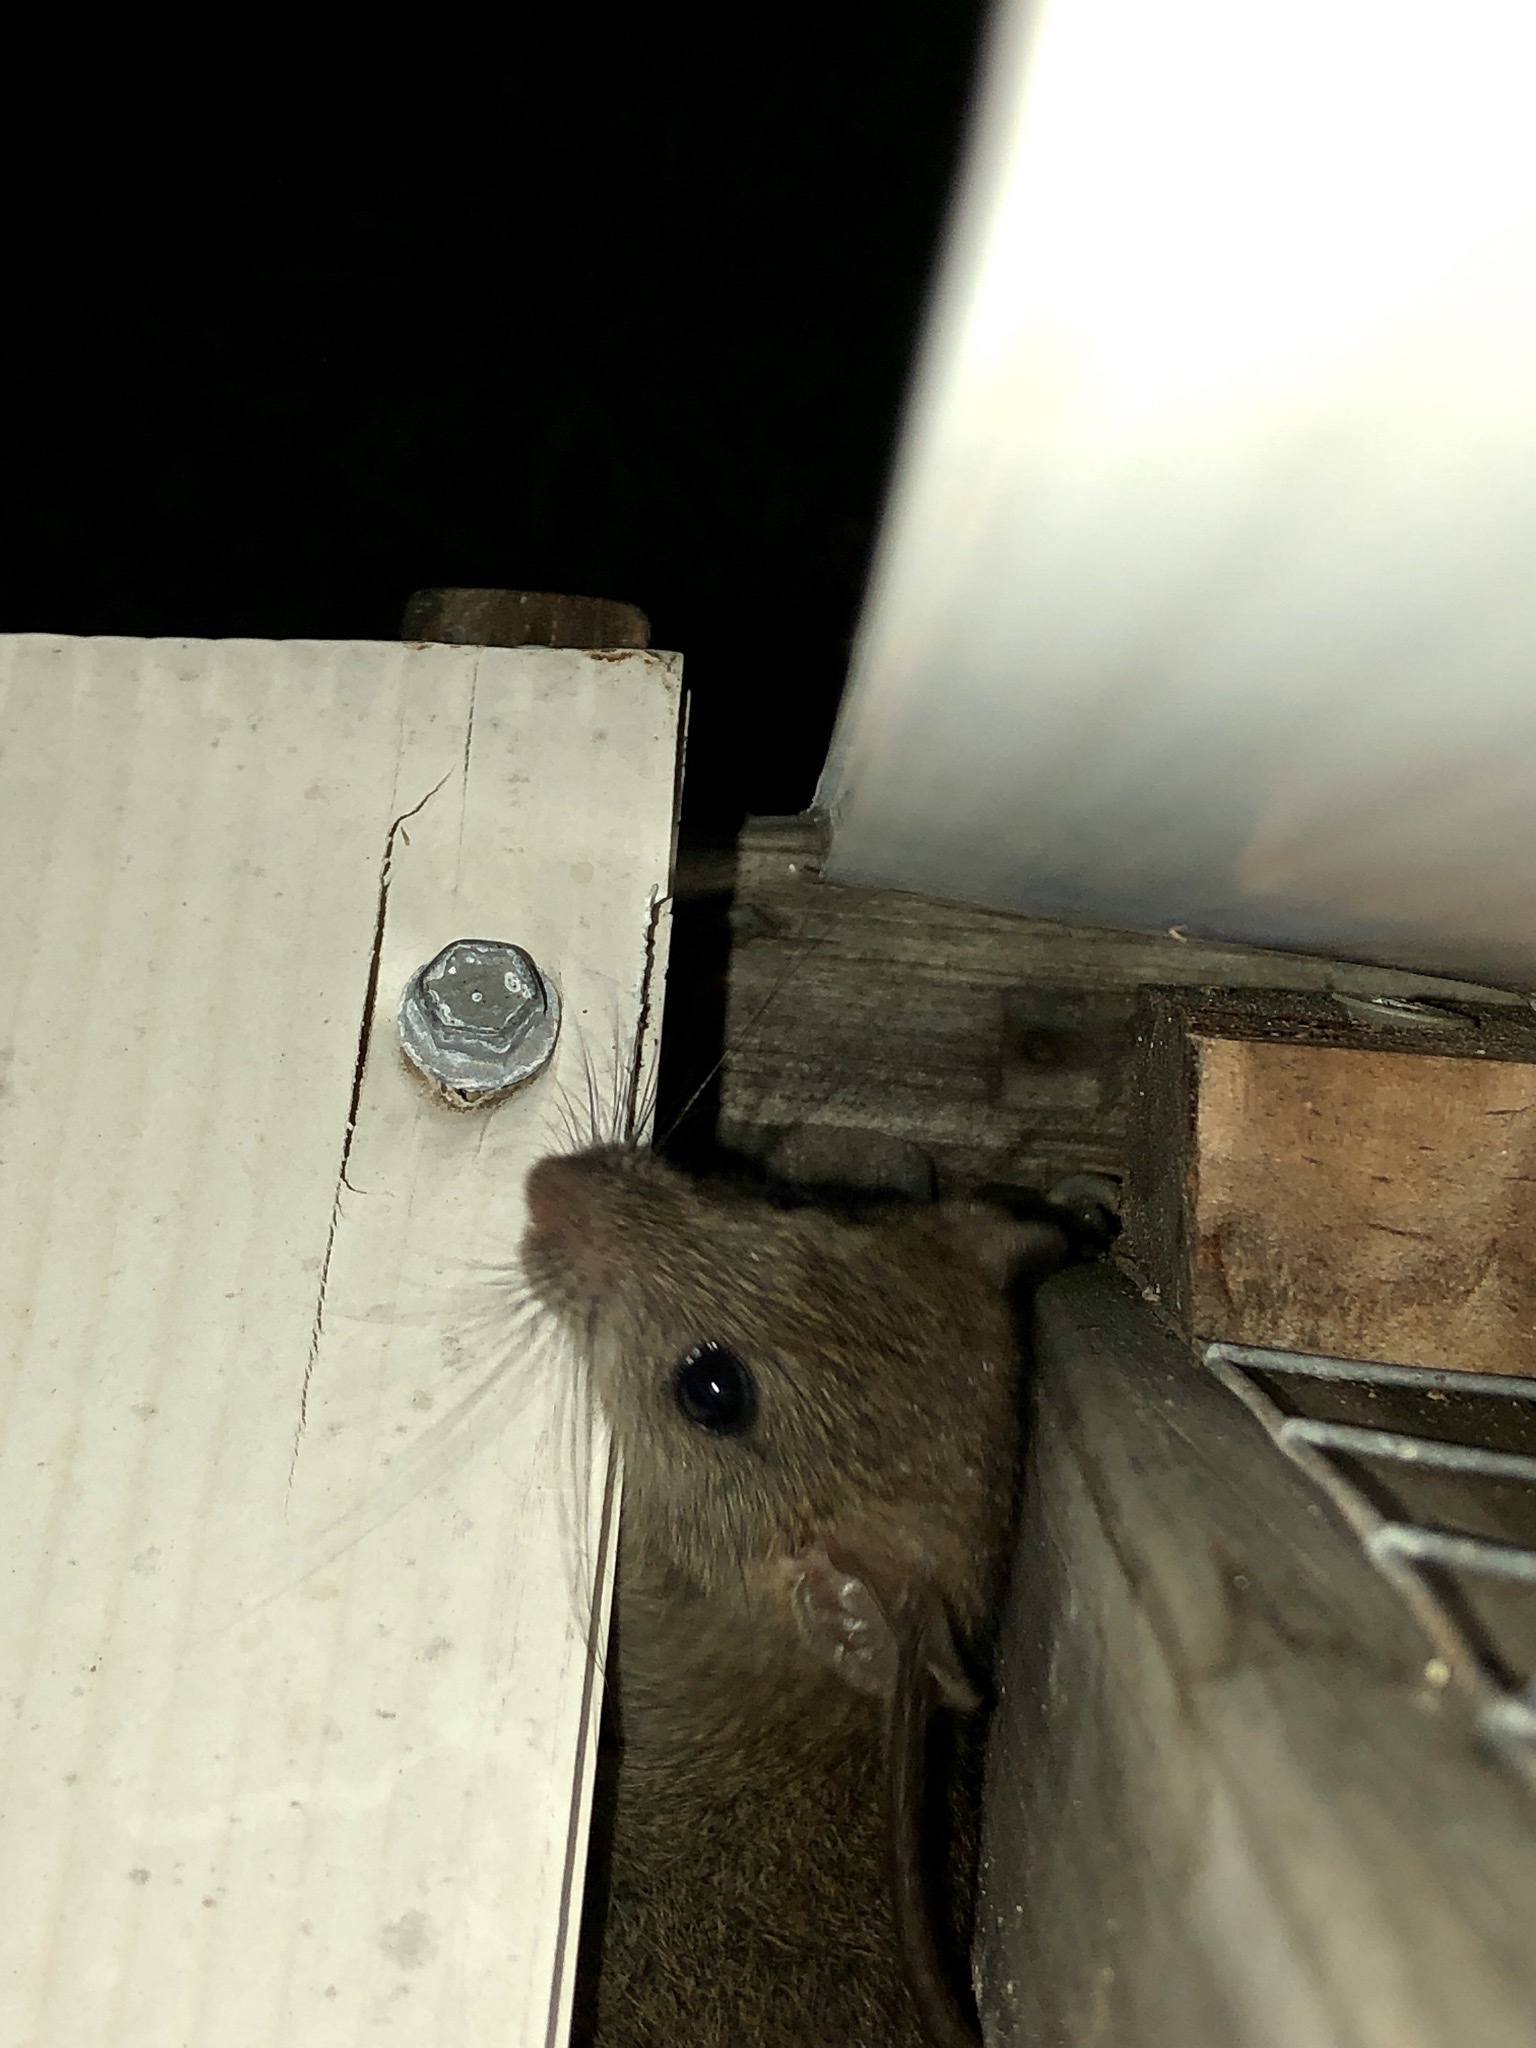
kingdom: Animalia
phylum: Chordata
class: Mammalia
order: Rodentia
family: Muridae
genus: Mus
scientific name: Mus musculus
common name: House mouse
